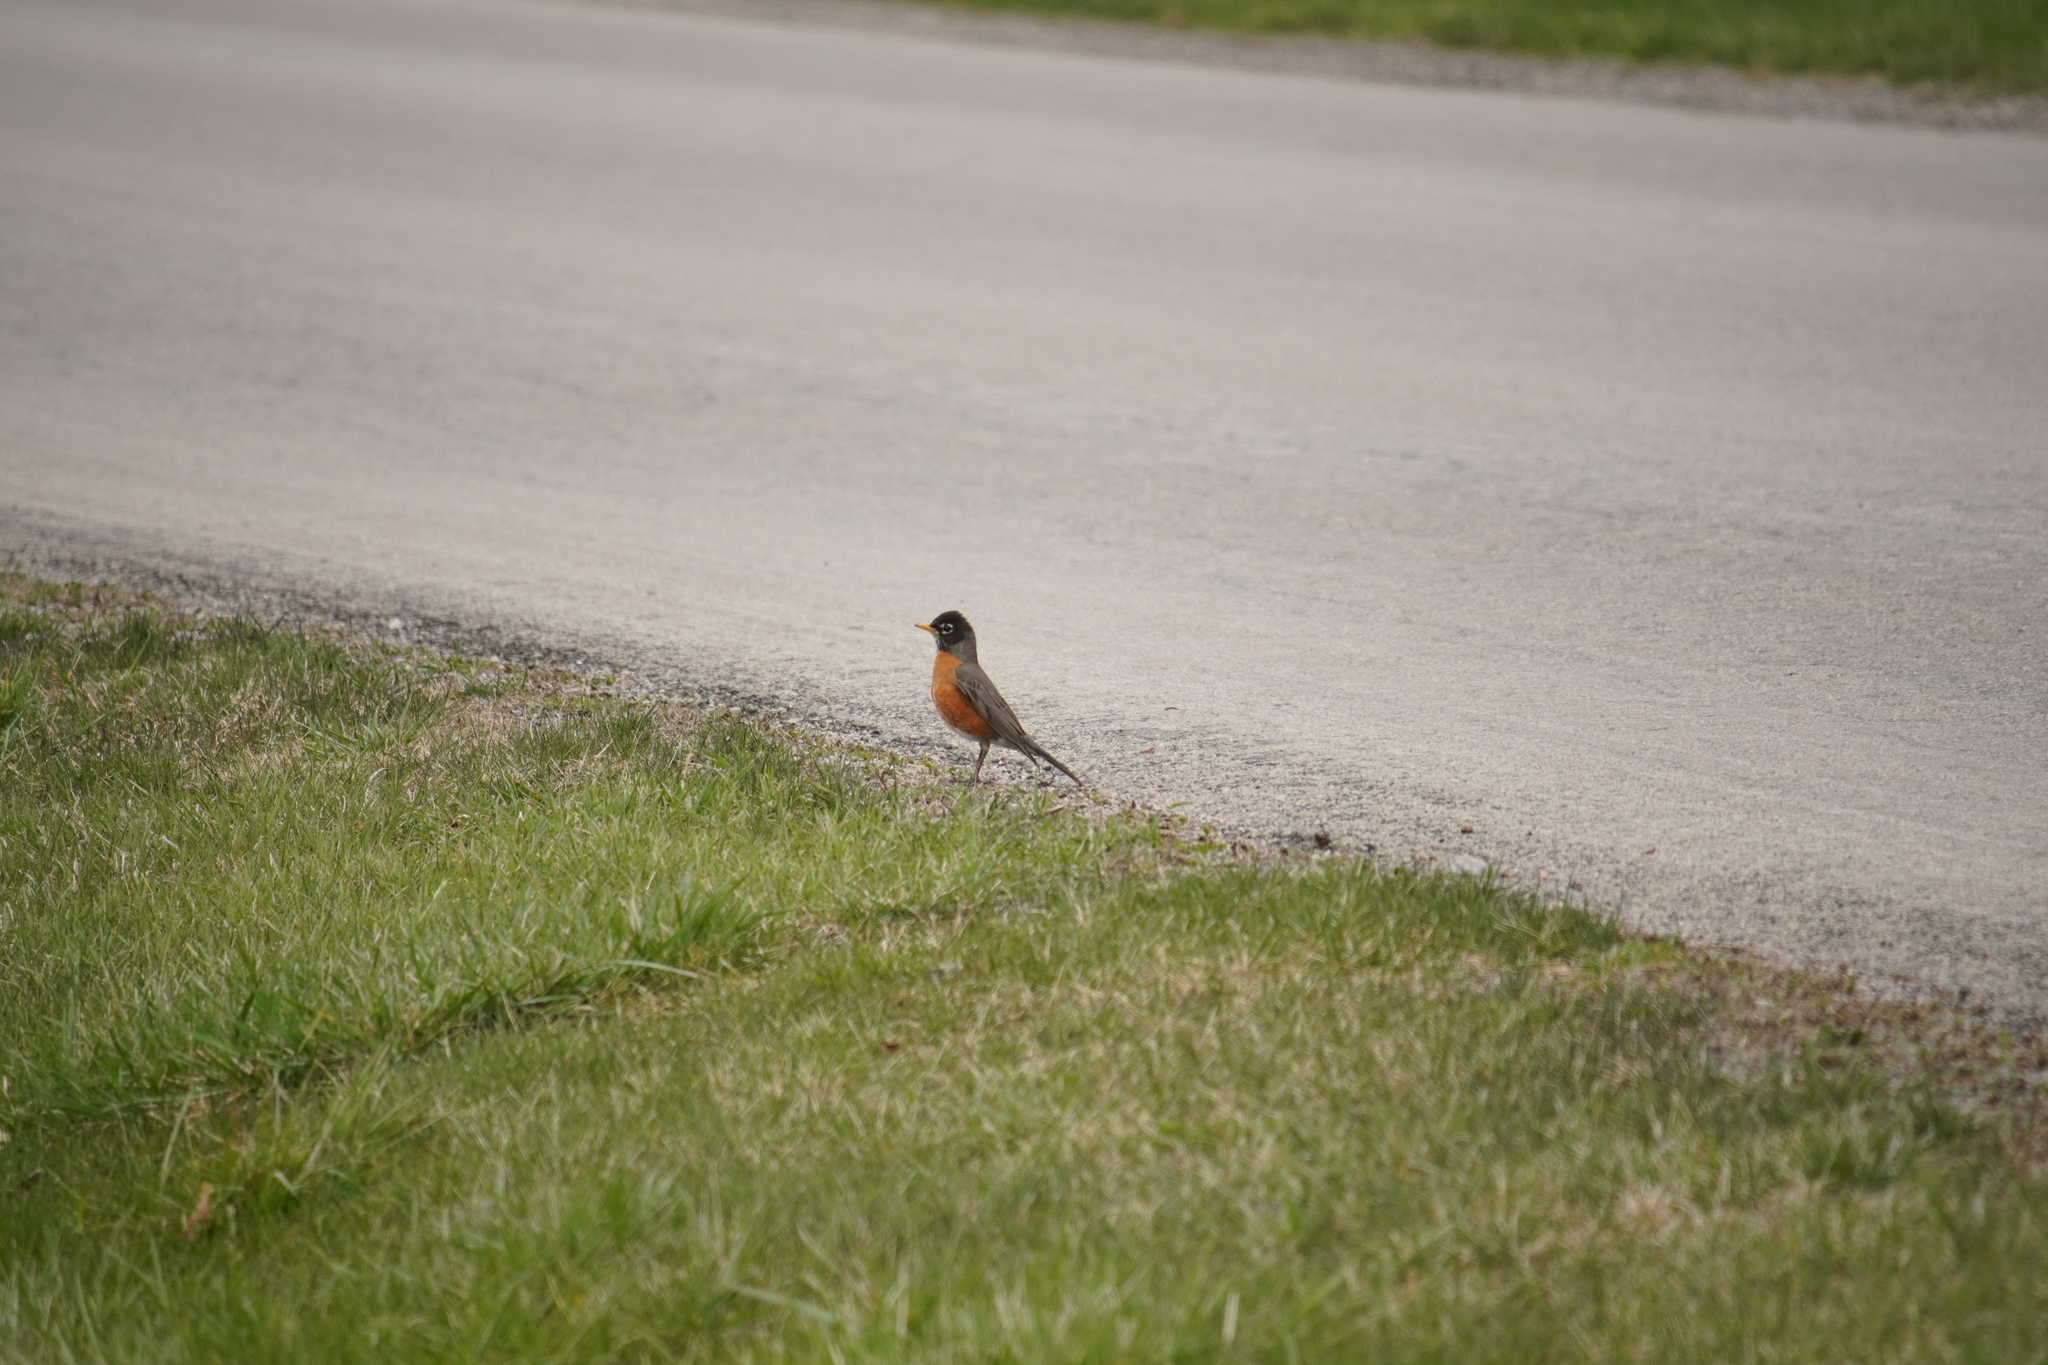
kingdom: Animalia
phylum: Chordata
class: Aves
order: Passeriformes
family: Turdidae
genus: Turdus
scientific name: Turdus migratorius
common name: American robin
